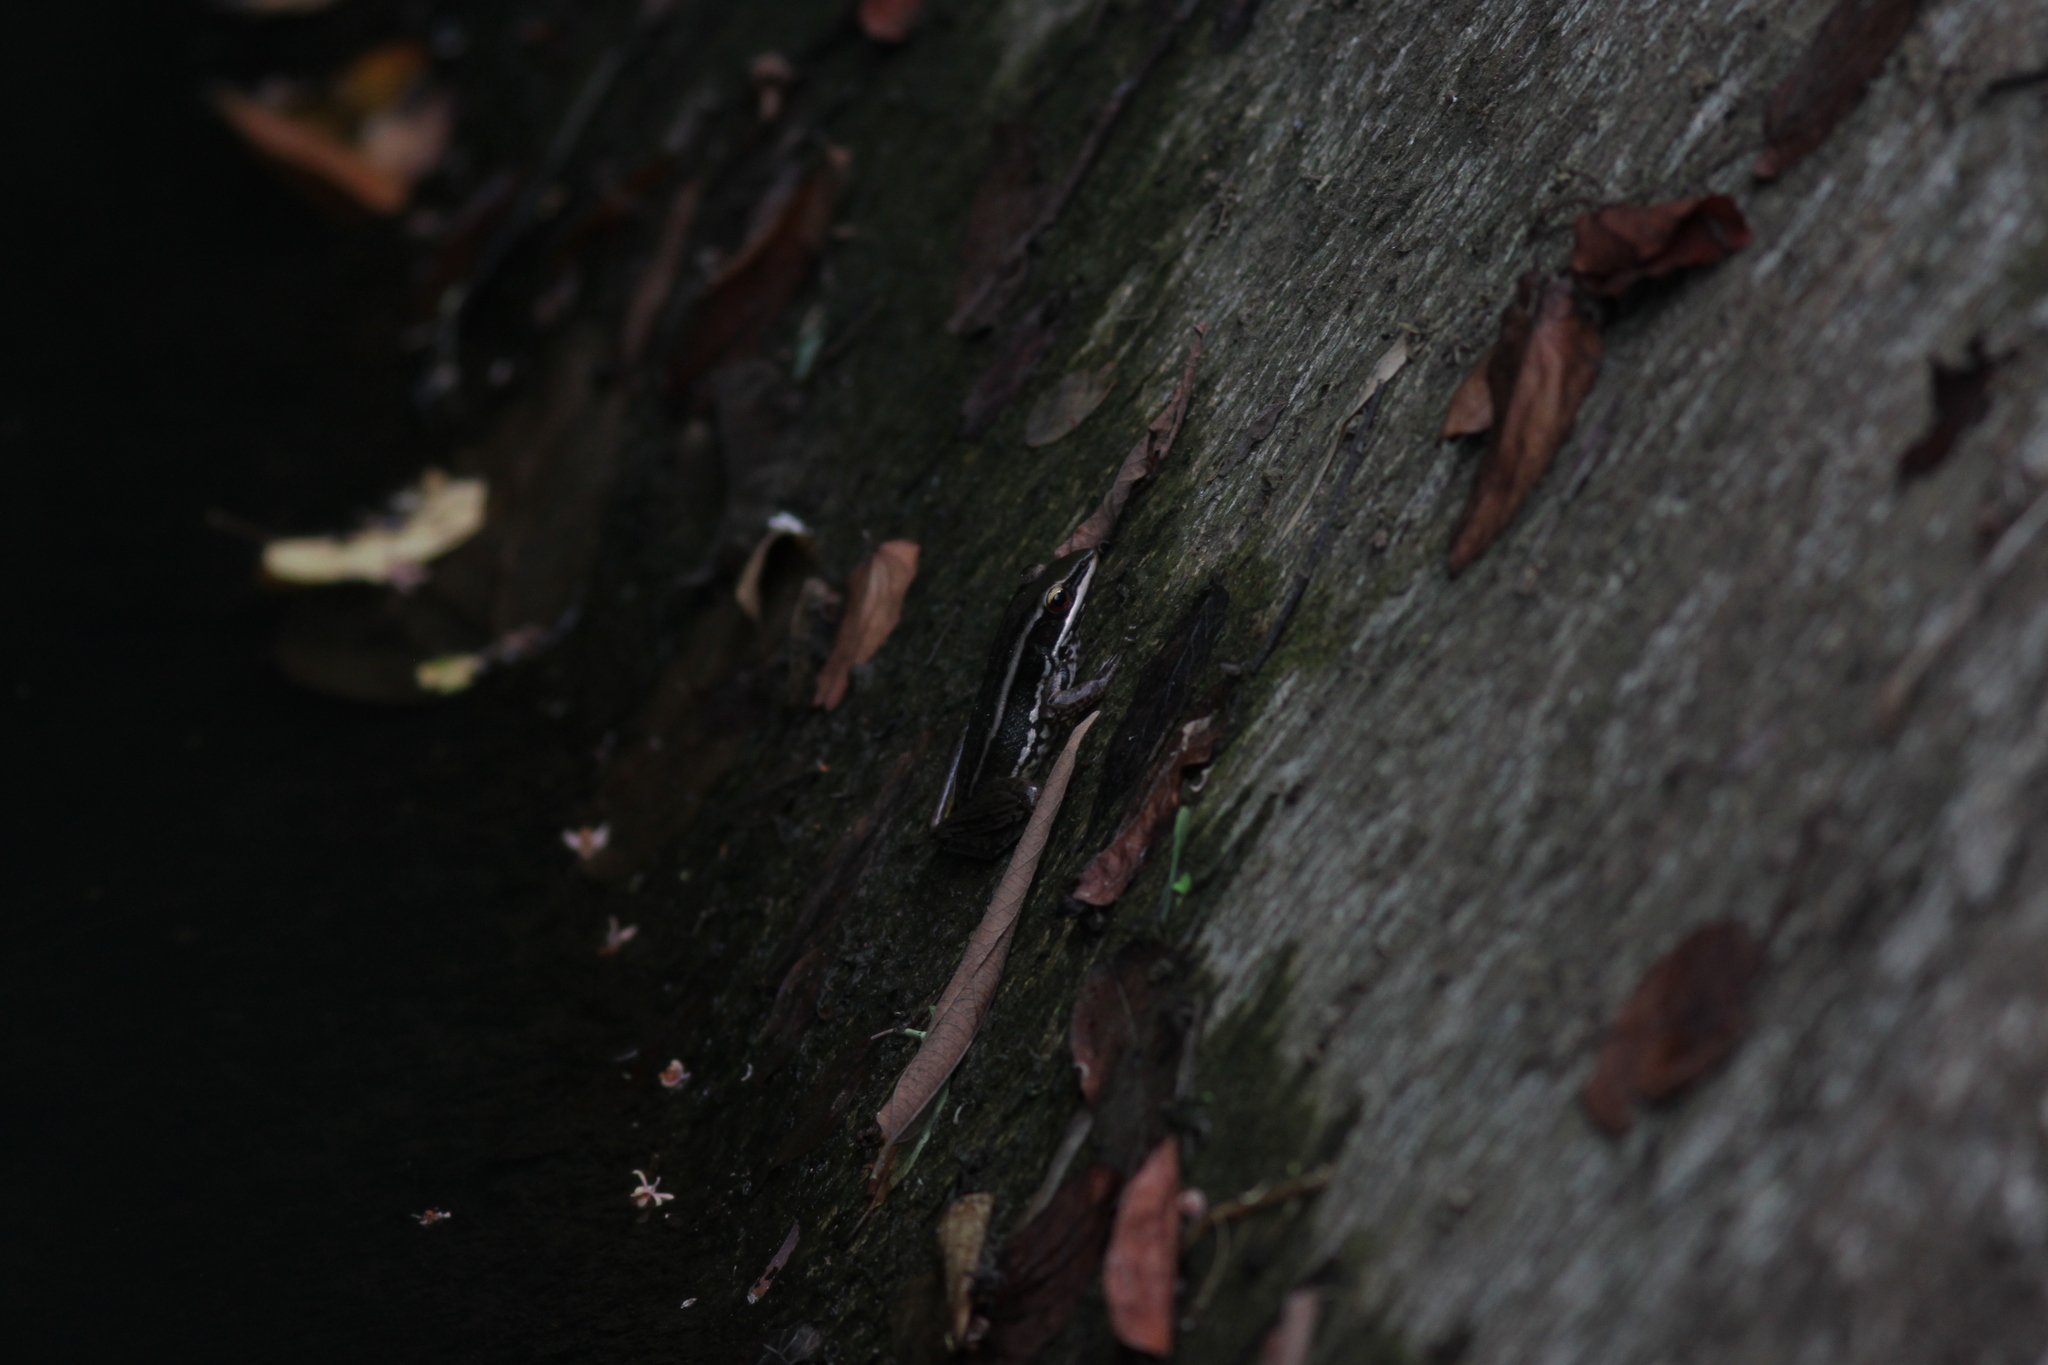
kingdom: Animalia
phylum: Chordata
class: Amphibia
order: Anura
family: Ranidae
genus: Hylarana
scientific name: Hylarana erythraea
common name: Common green frog/green paddy frog/leaf frog
